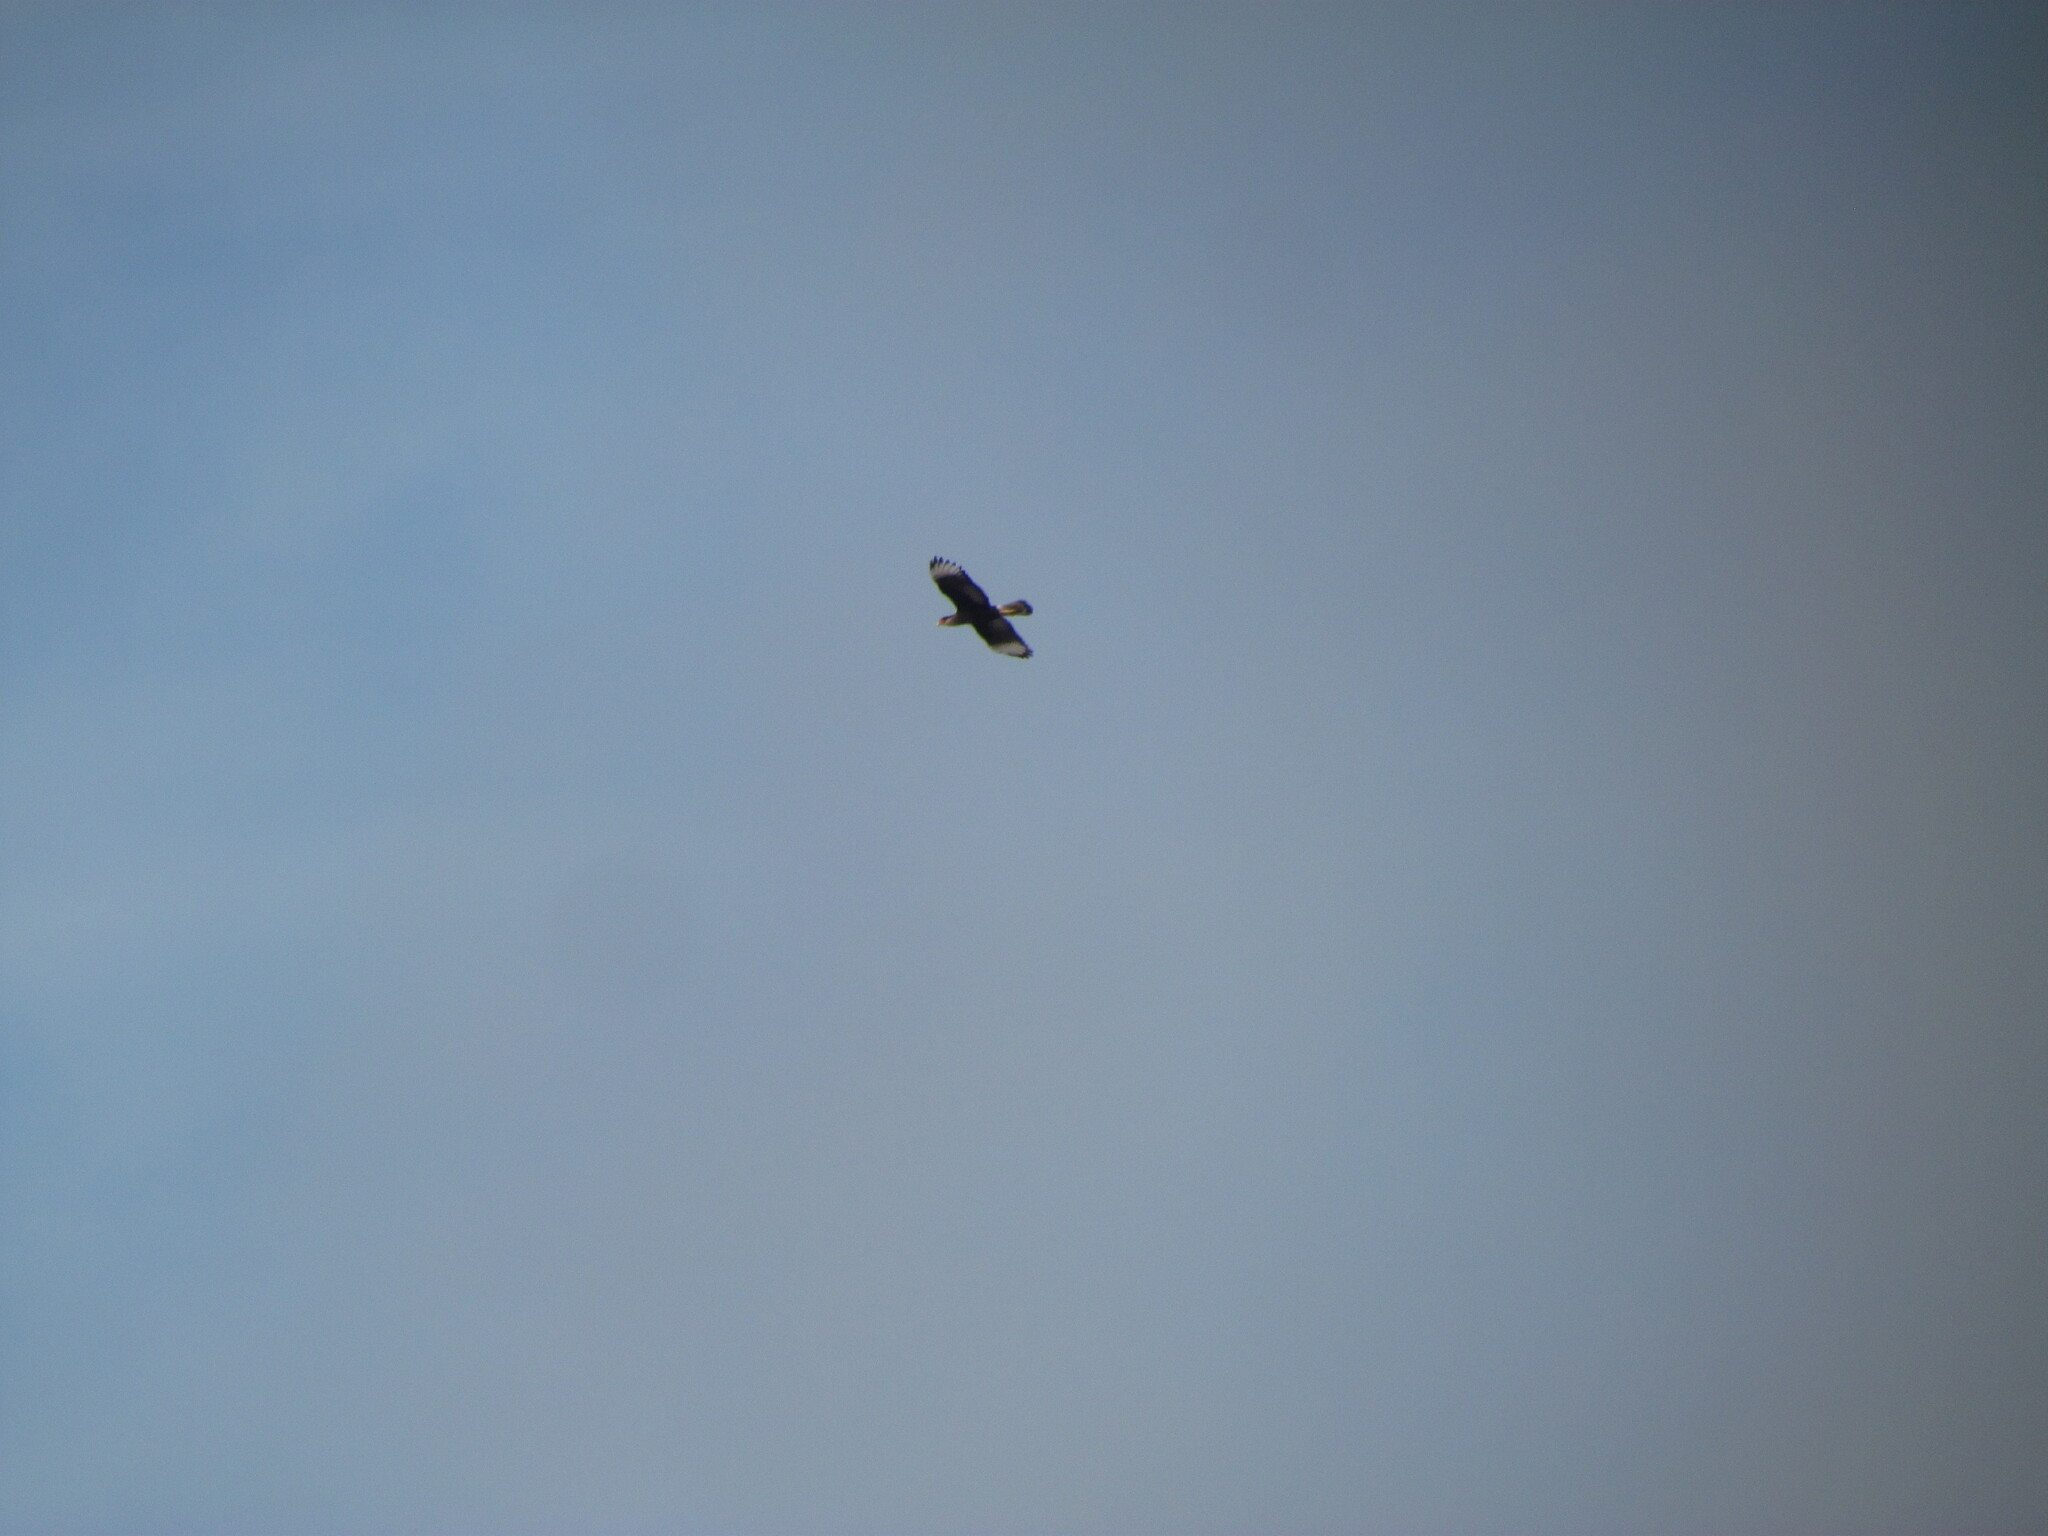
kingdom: Animalia
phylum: Chordata
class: Aves
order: Falconiformes
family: Falconidae
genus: Caracara
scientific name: Caracara plancus
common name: Southern caracara
